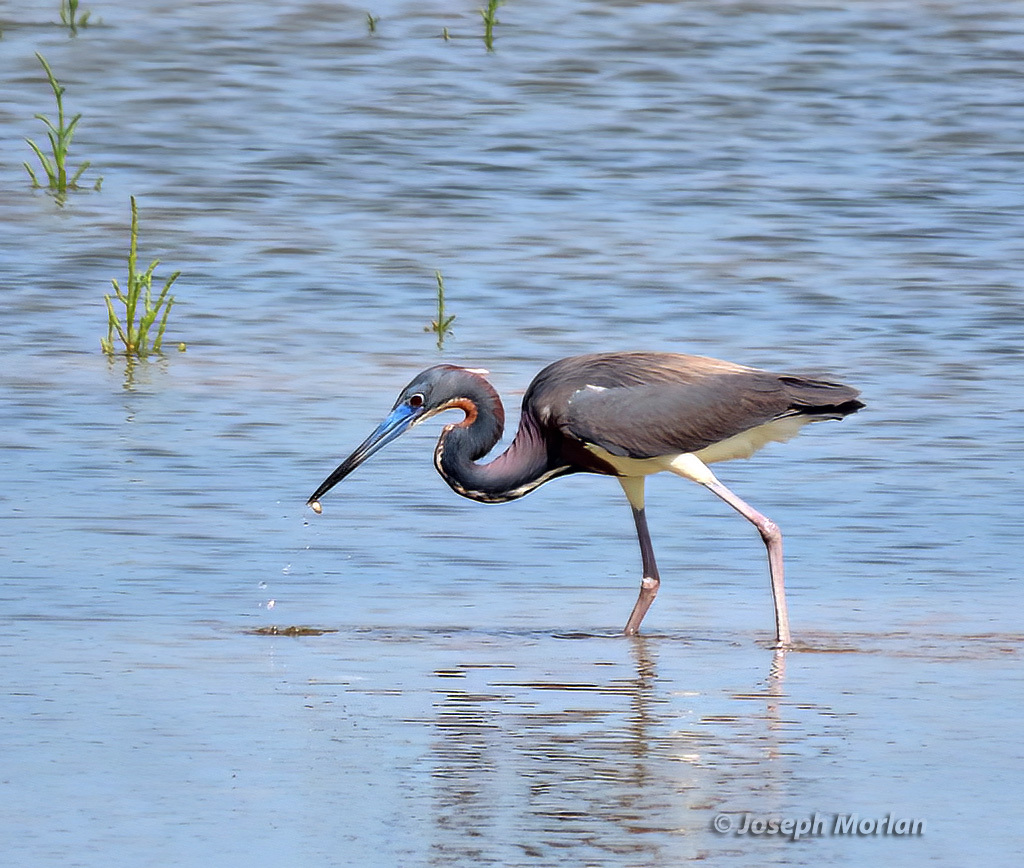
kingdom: Animalia
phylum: Chordata
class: Aves
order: Pelecaniformes
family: Ardeidae
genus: Egretta
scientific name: Egretta tricolor
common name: Tricolored heron
